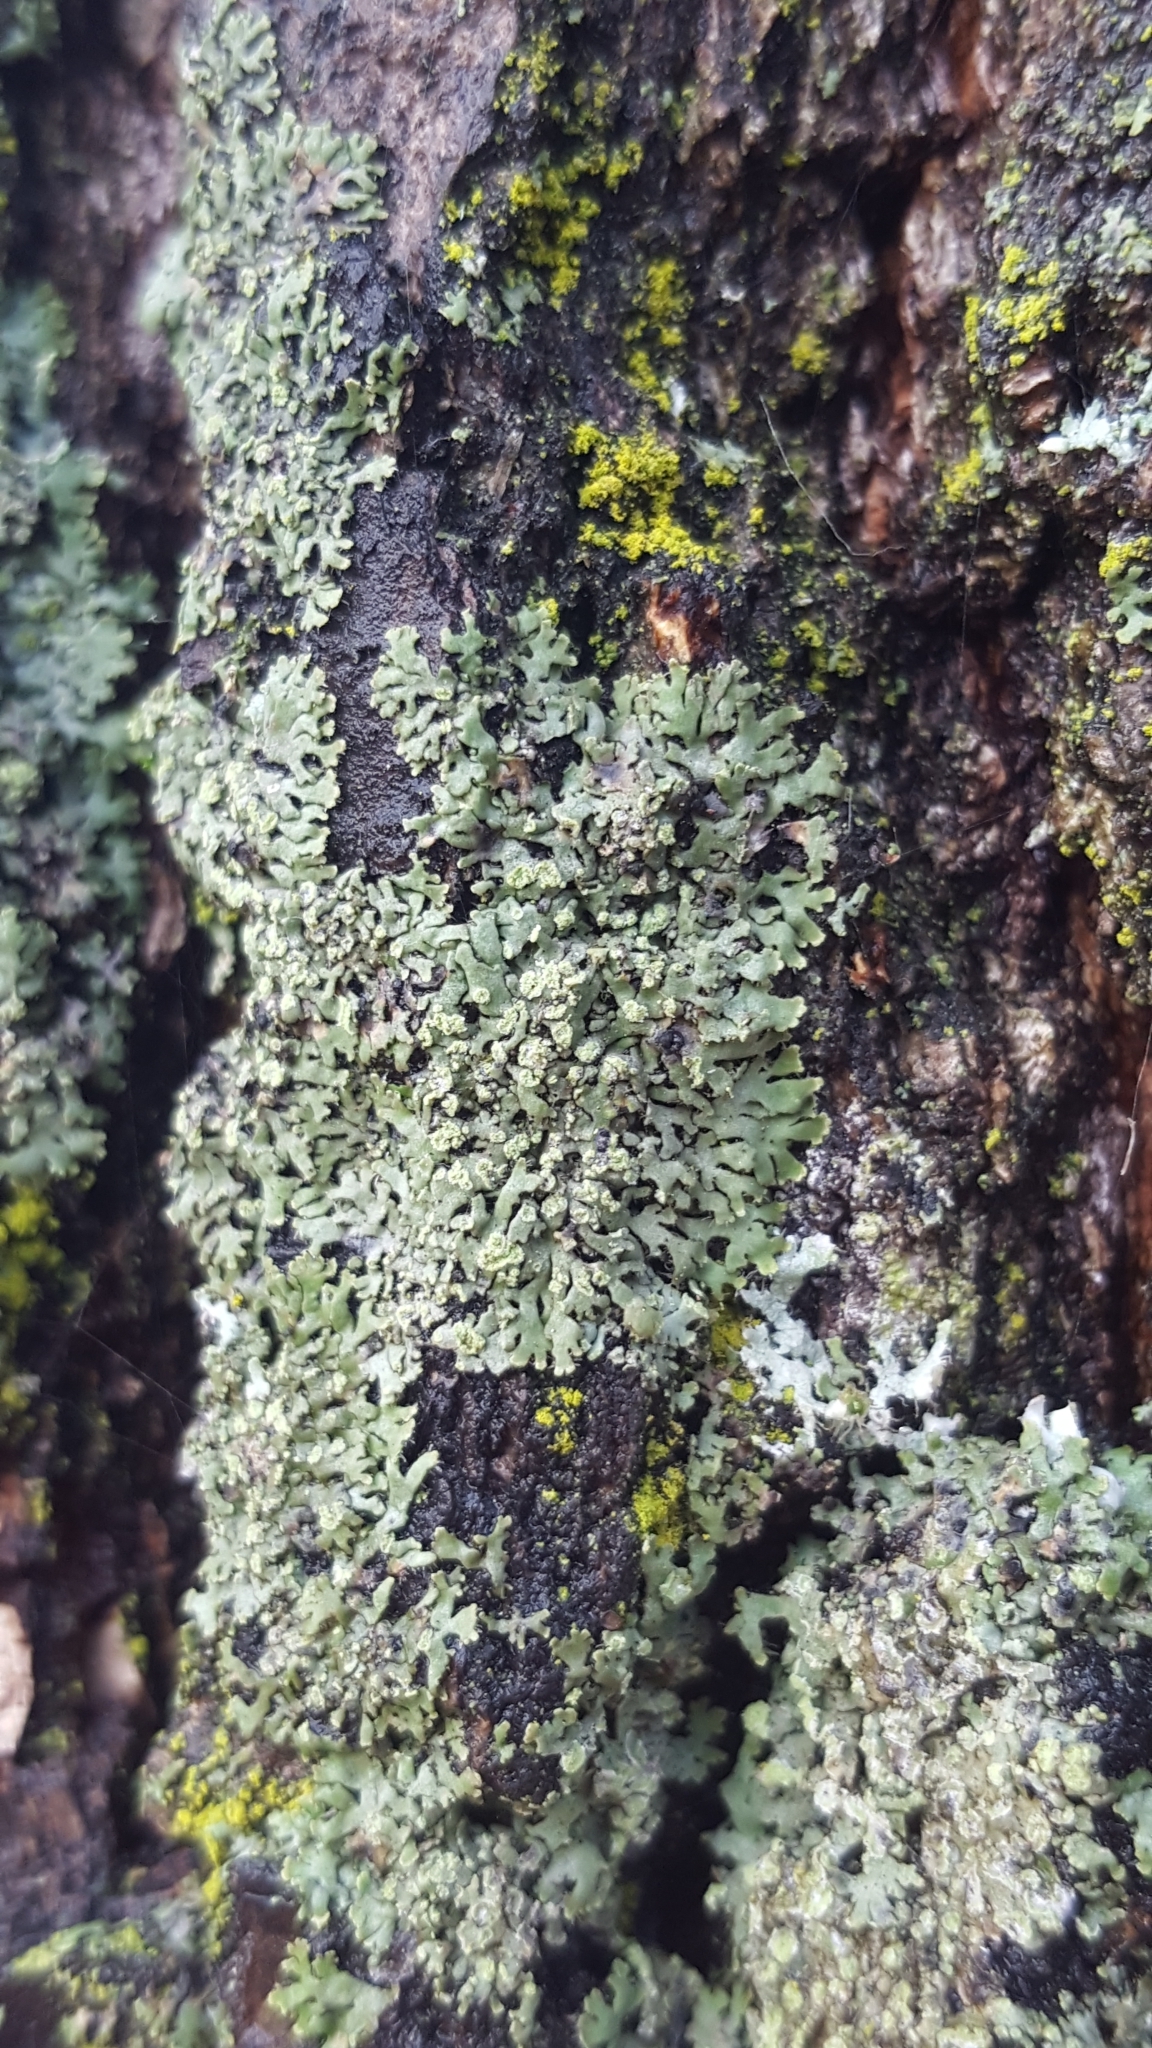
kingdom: Fungi
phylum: Ascomycota
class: Lecanoromycetes
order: Caliciales
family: Physciaceae
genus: Phaeophyscia
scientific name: Phaeophyscia orbicularis
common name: Mealy shadow lichen
